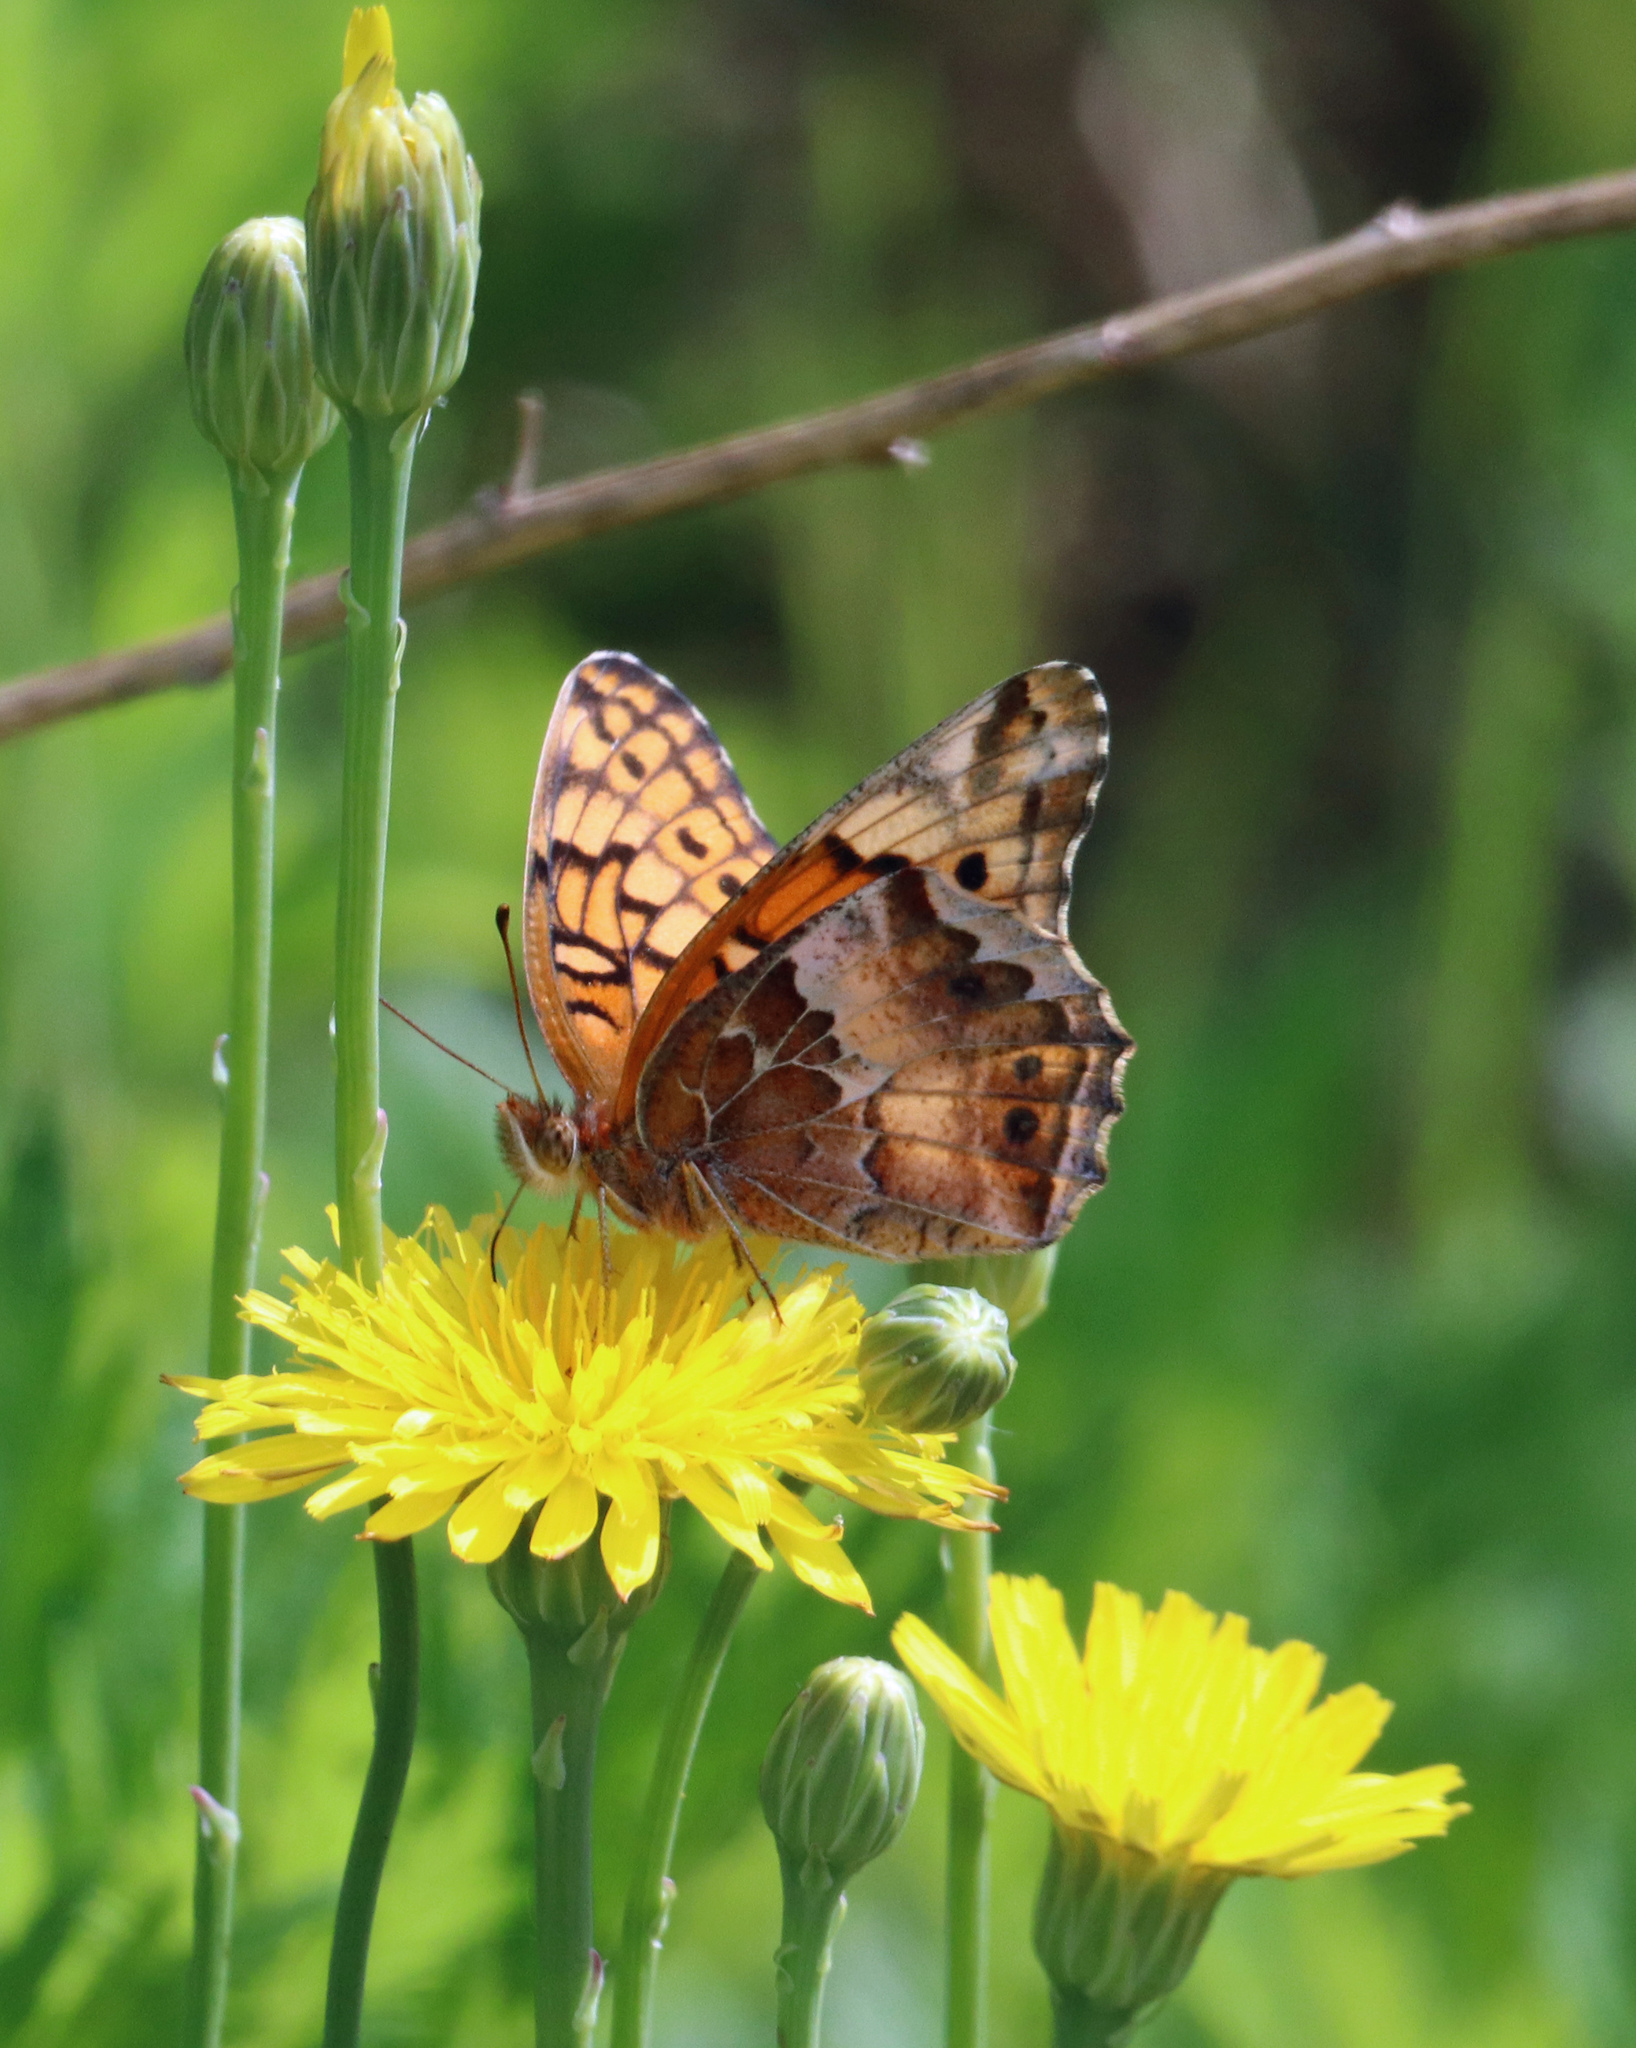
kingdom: Animalia
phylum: Arthropoda
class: Insecta
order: Lepidoptera
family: Nymphalidae
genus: Euptoieta
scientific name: Euptoieta claudia
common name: Variegated fritillary
